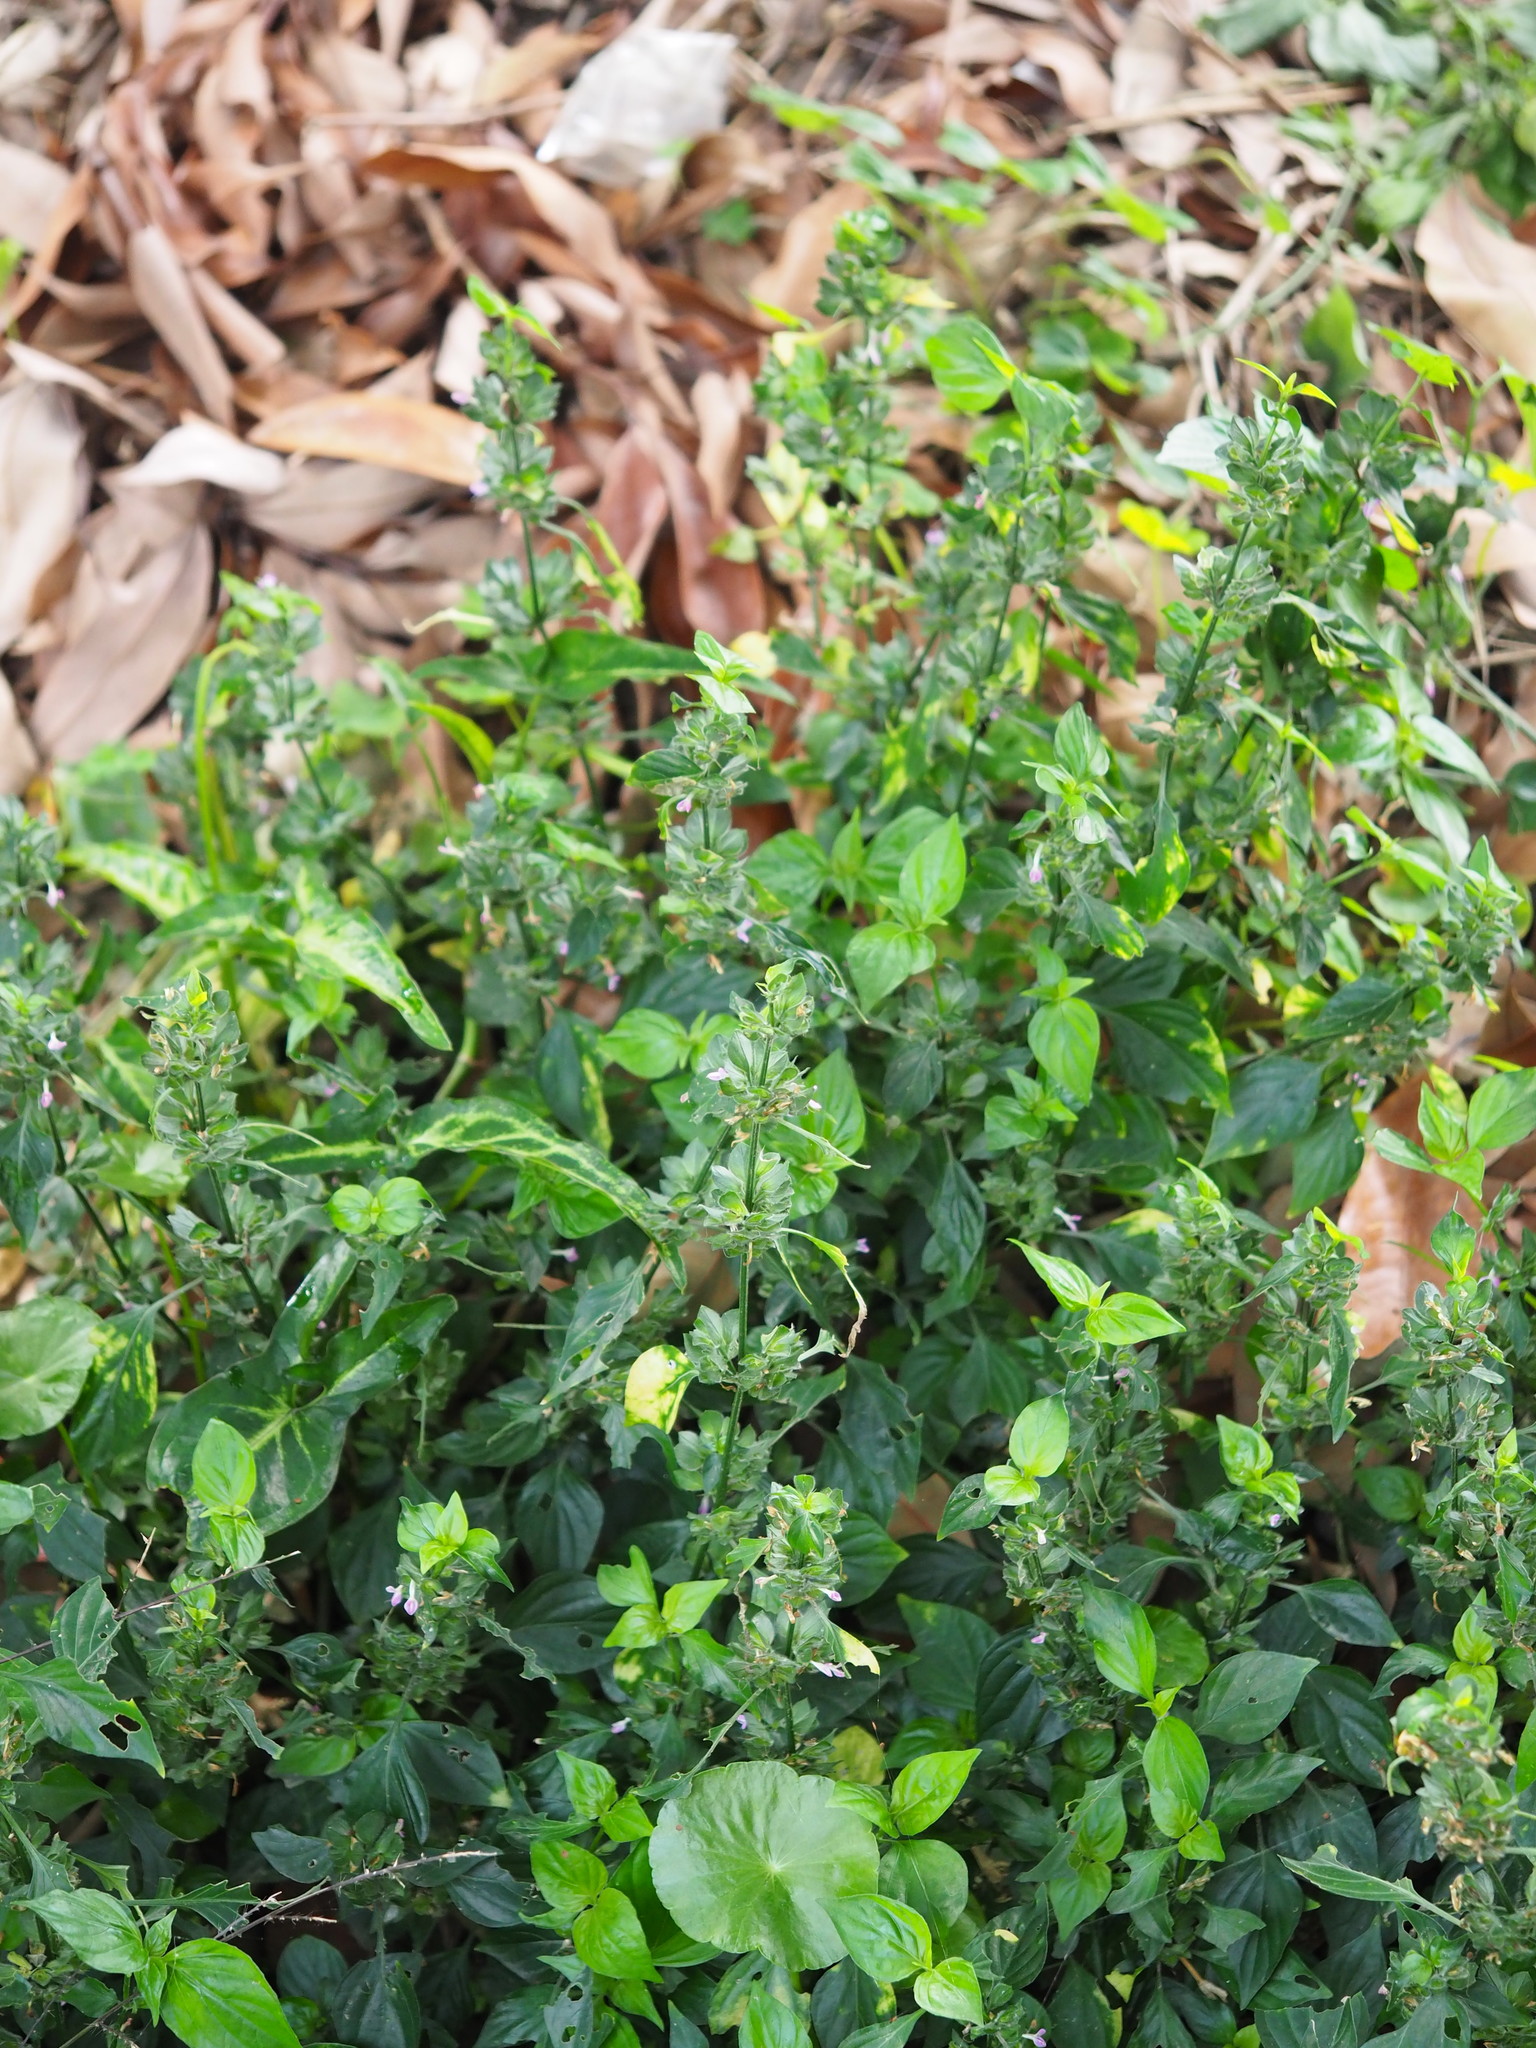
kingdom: Plantae
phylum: Tracheophyta
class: Magnoliopsida
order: Lamiales
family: Acanthaceae
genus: Dicliptera
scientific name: Dicliptera chinensis
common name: Chinese foldwing
